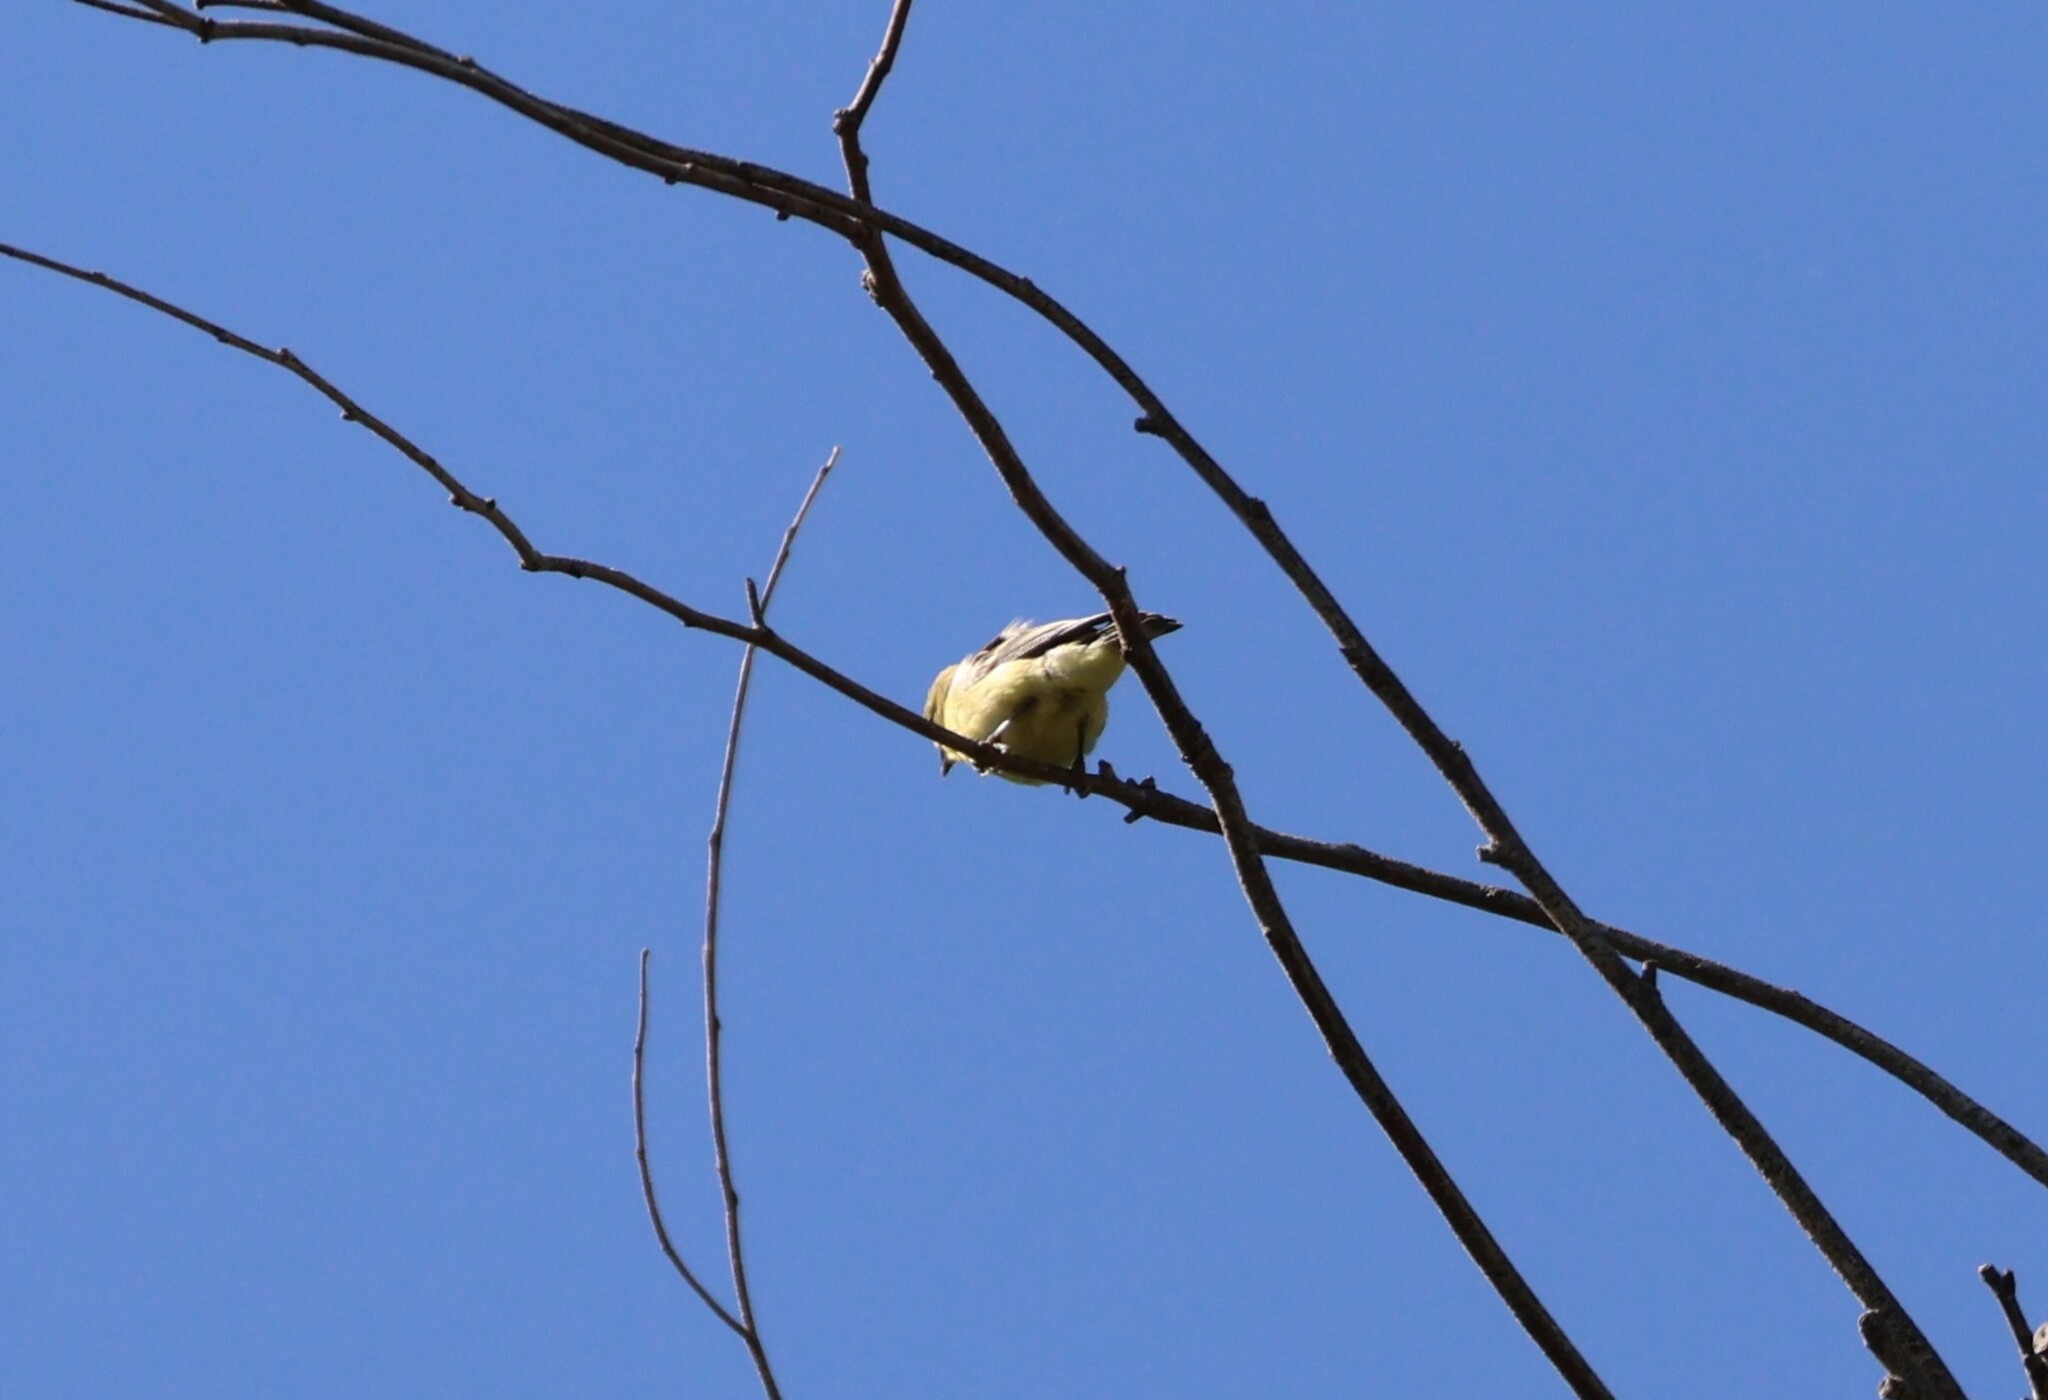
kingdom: Animalia
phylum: Chordata
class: Aves
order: Passeriformes
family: Fringillidae
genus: Spinus
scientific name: Spinus psaltria
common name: Lesser goldfinch
